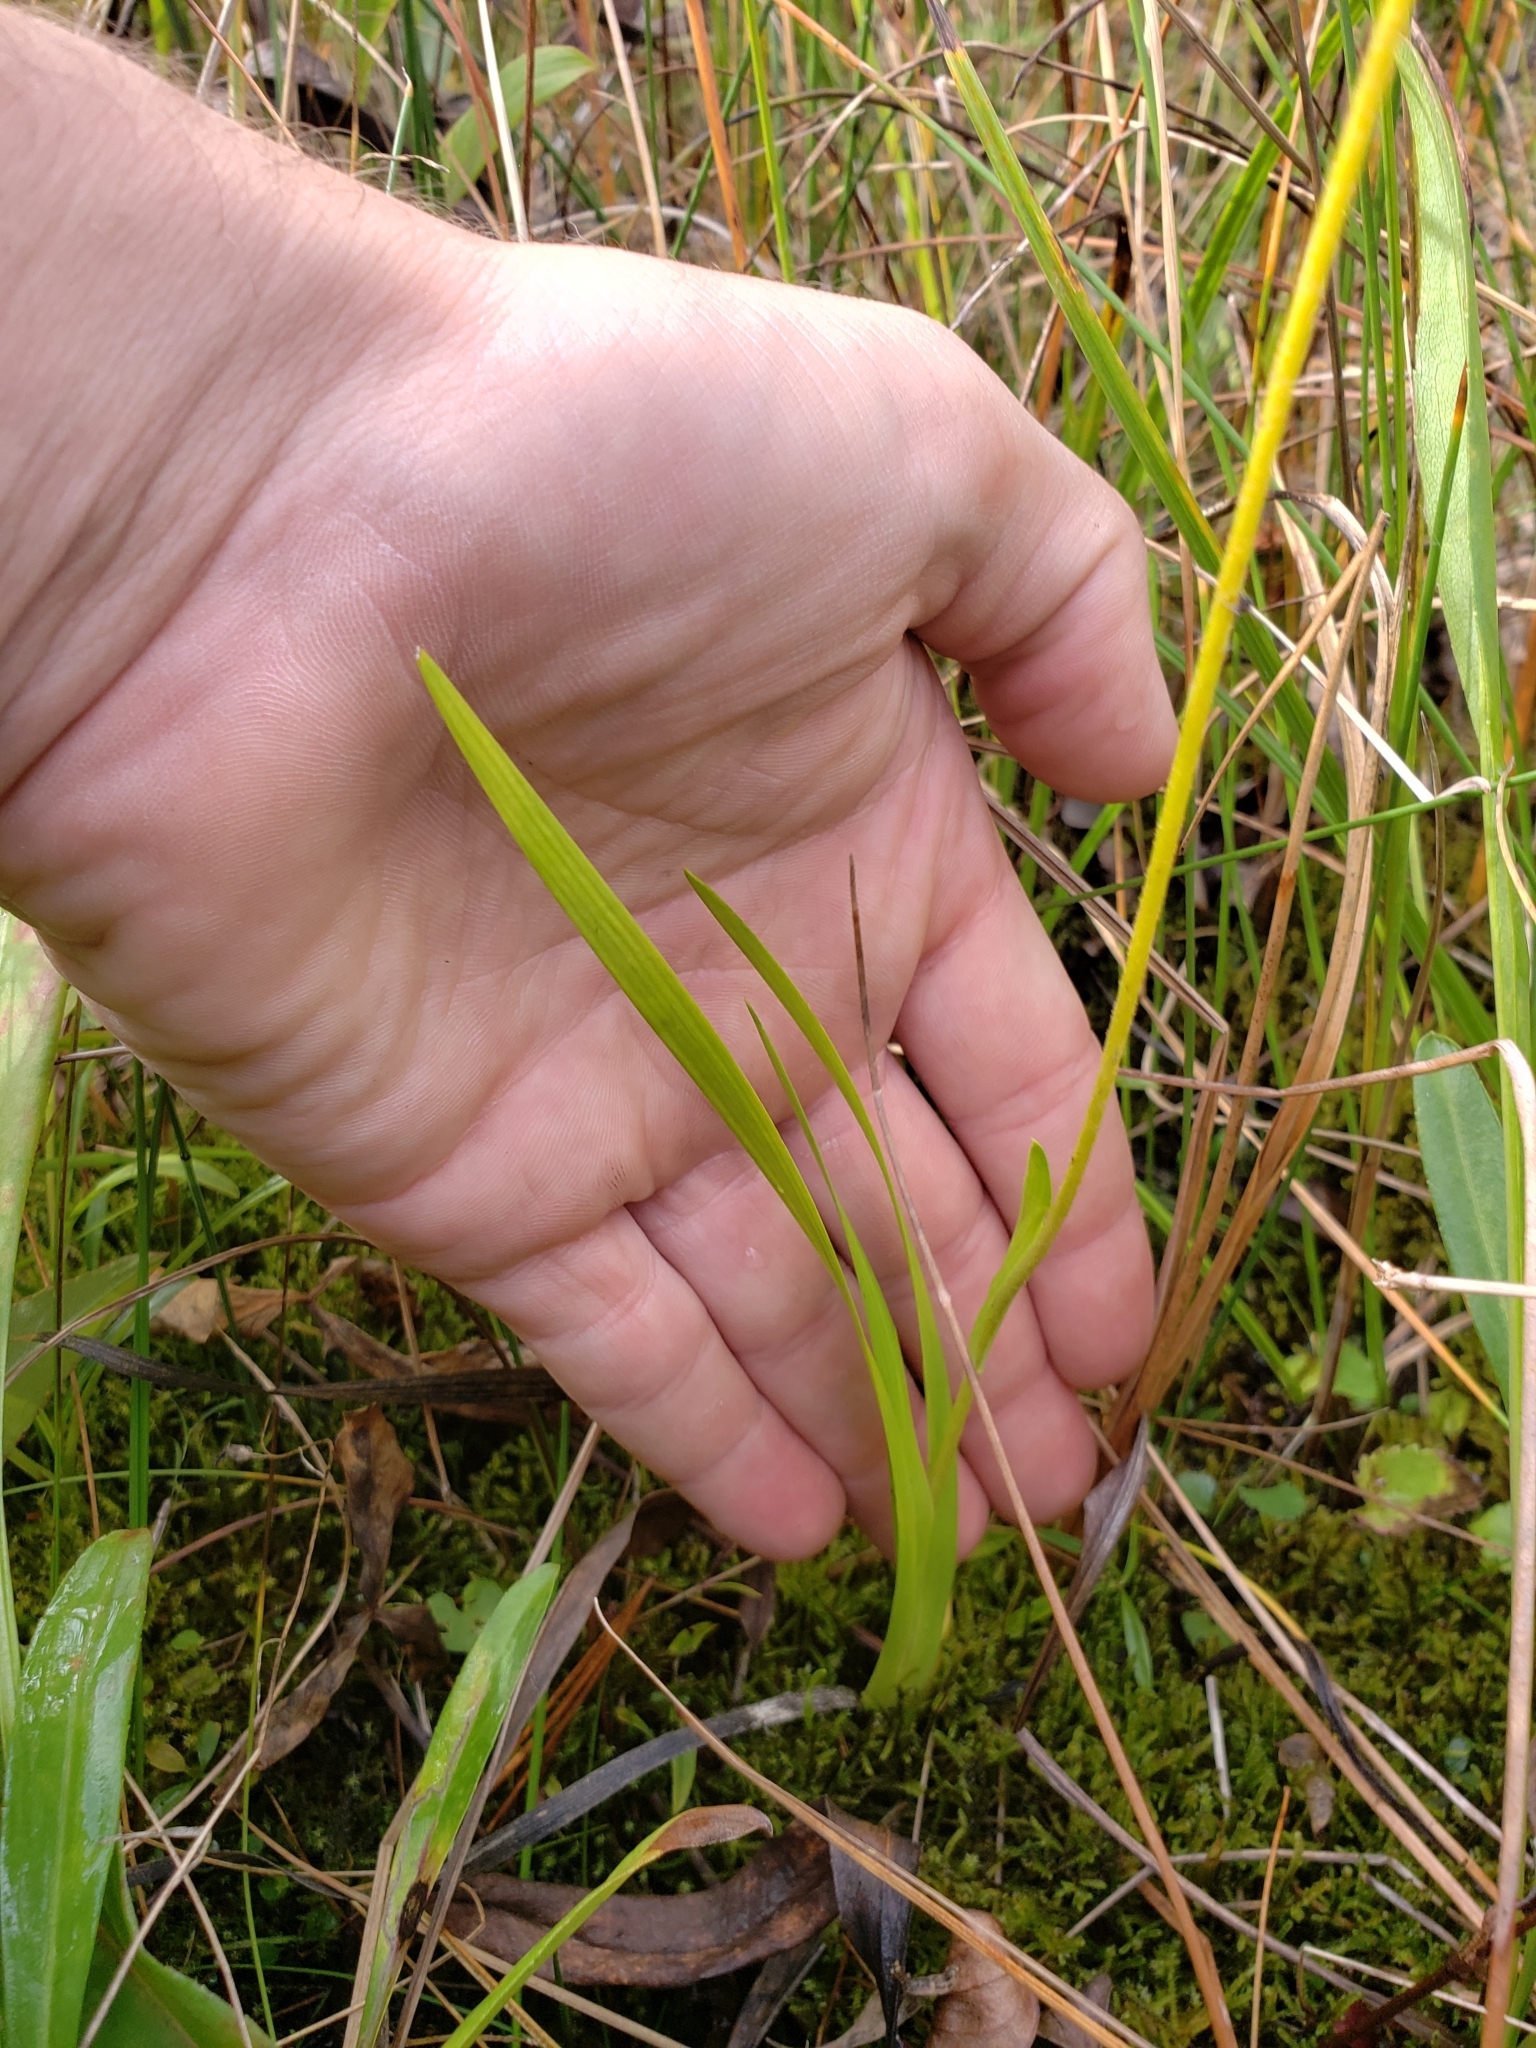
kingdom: Plantae
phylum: Tracheophyta
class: Liliopsida
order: Alismatales
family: Tofieldiaceae
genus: Triantha
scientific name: Triantha glutinosa
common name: Glutinous tofieldia
